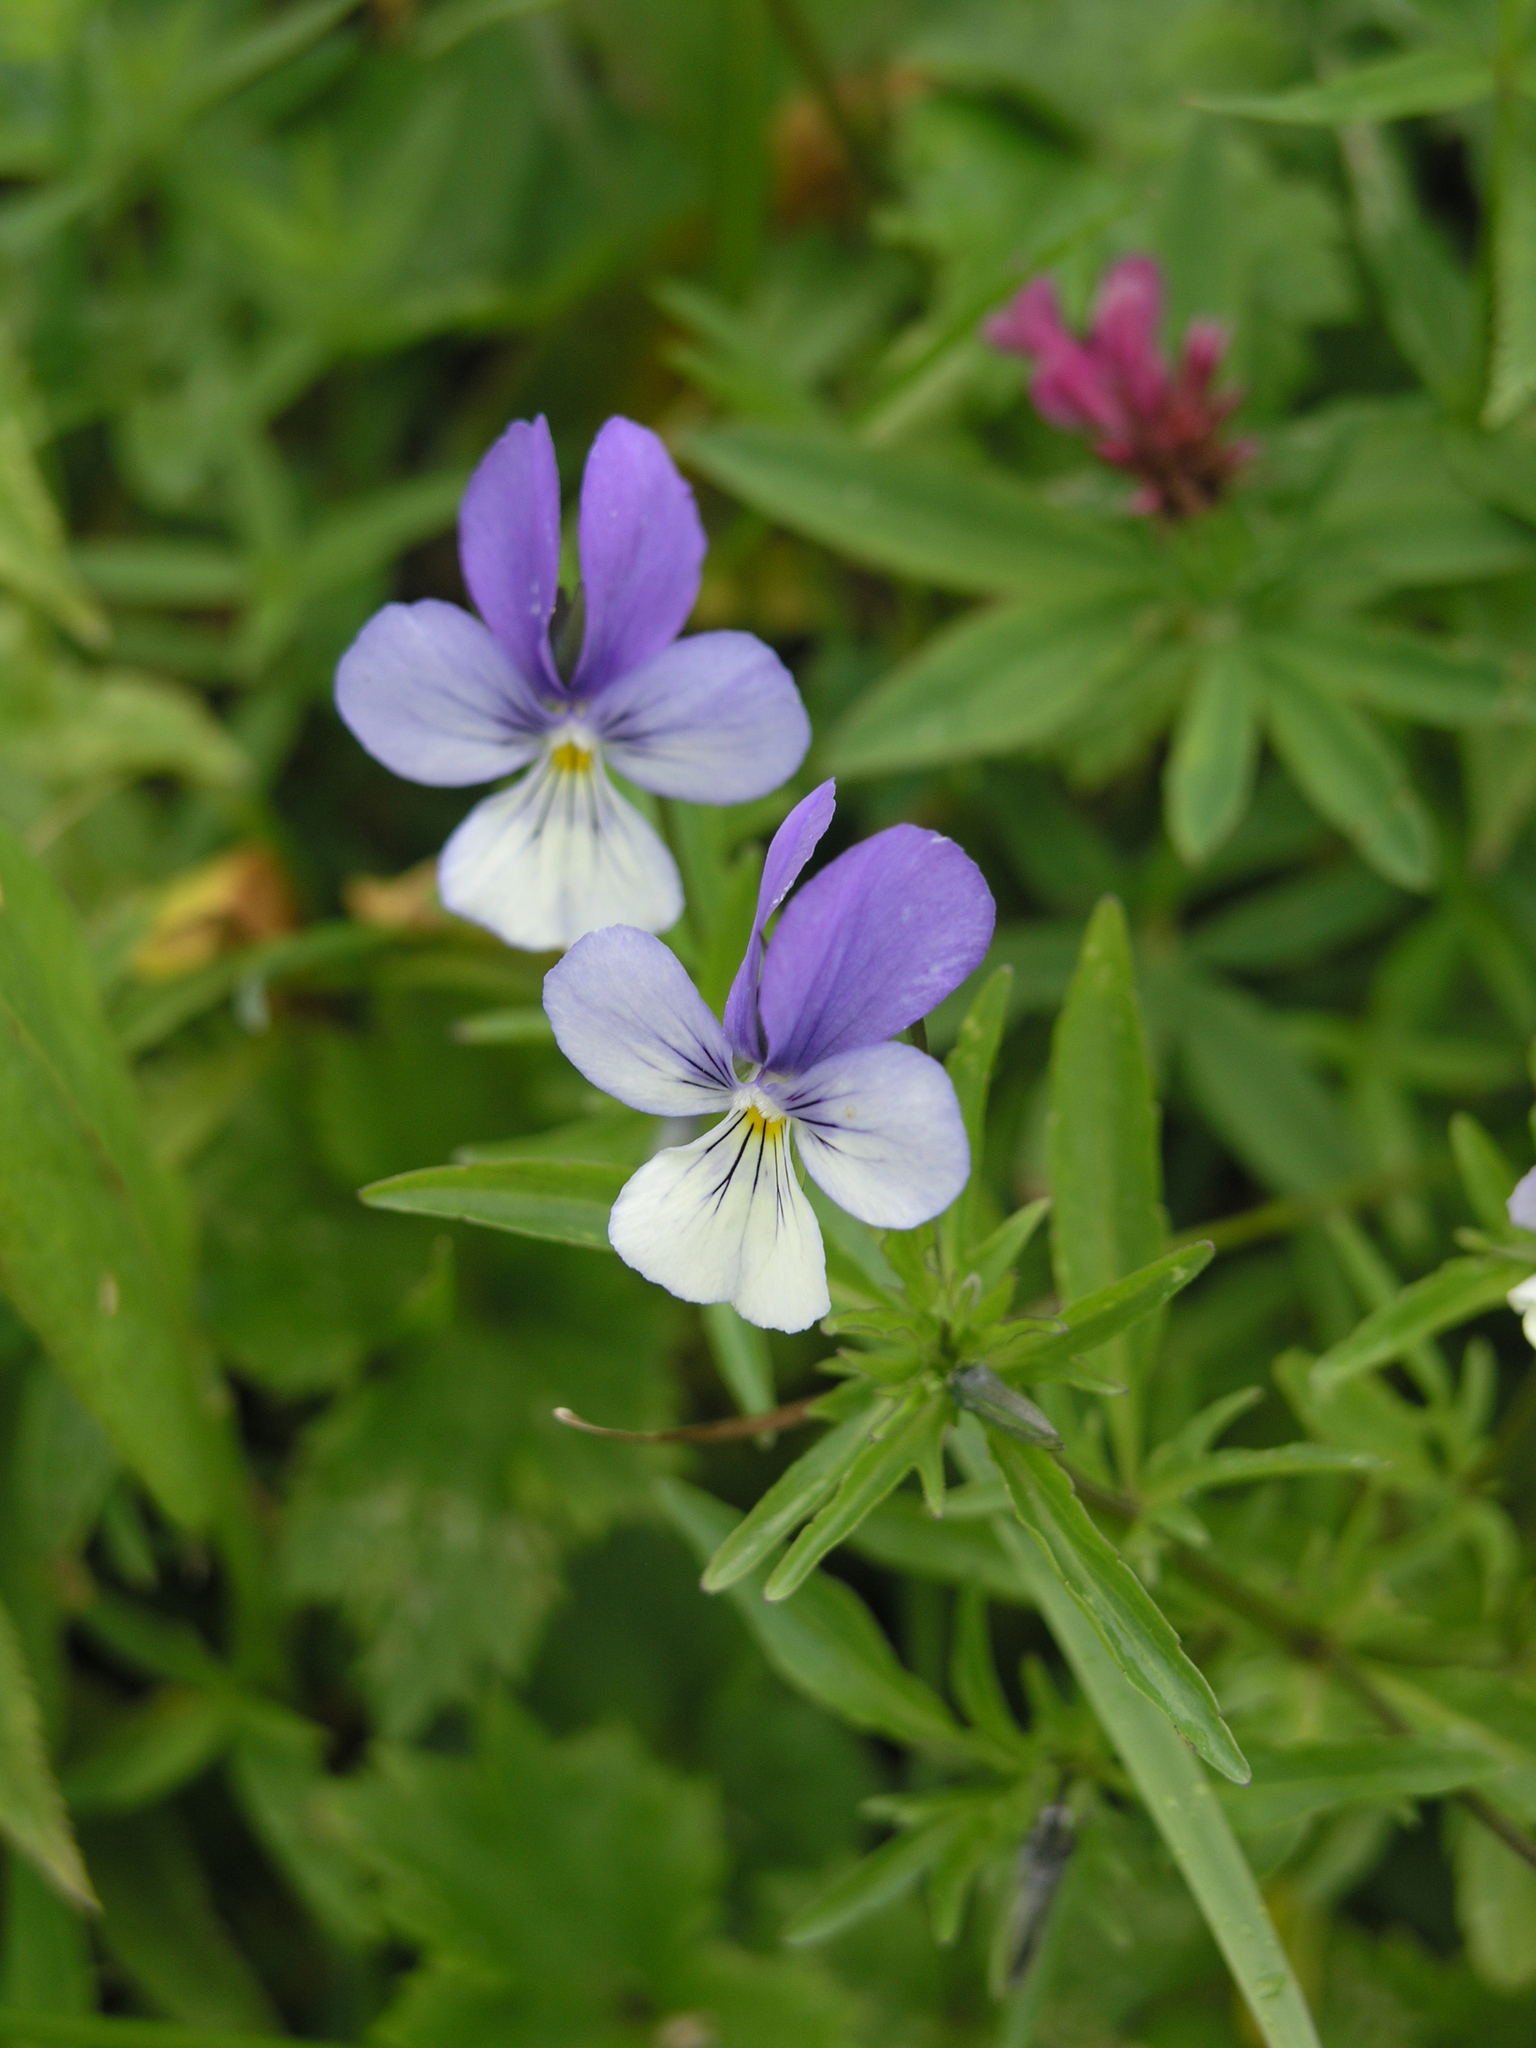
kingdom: Plantae
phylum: Tracheophyta
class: Magnoliopsida
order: Malpighiales
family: Violaceae
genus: Viola
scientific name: Viola tricolor
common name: Pansy
